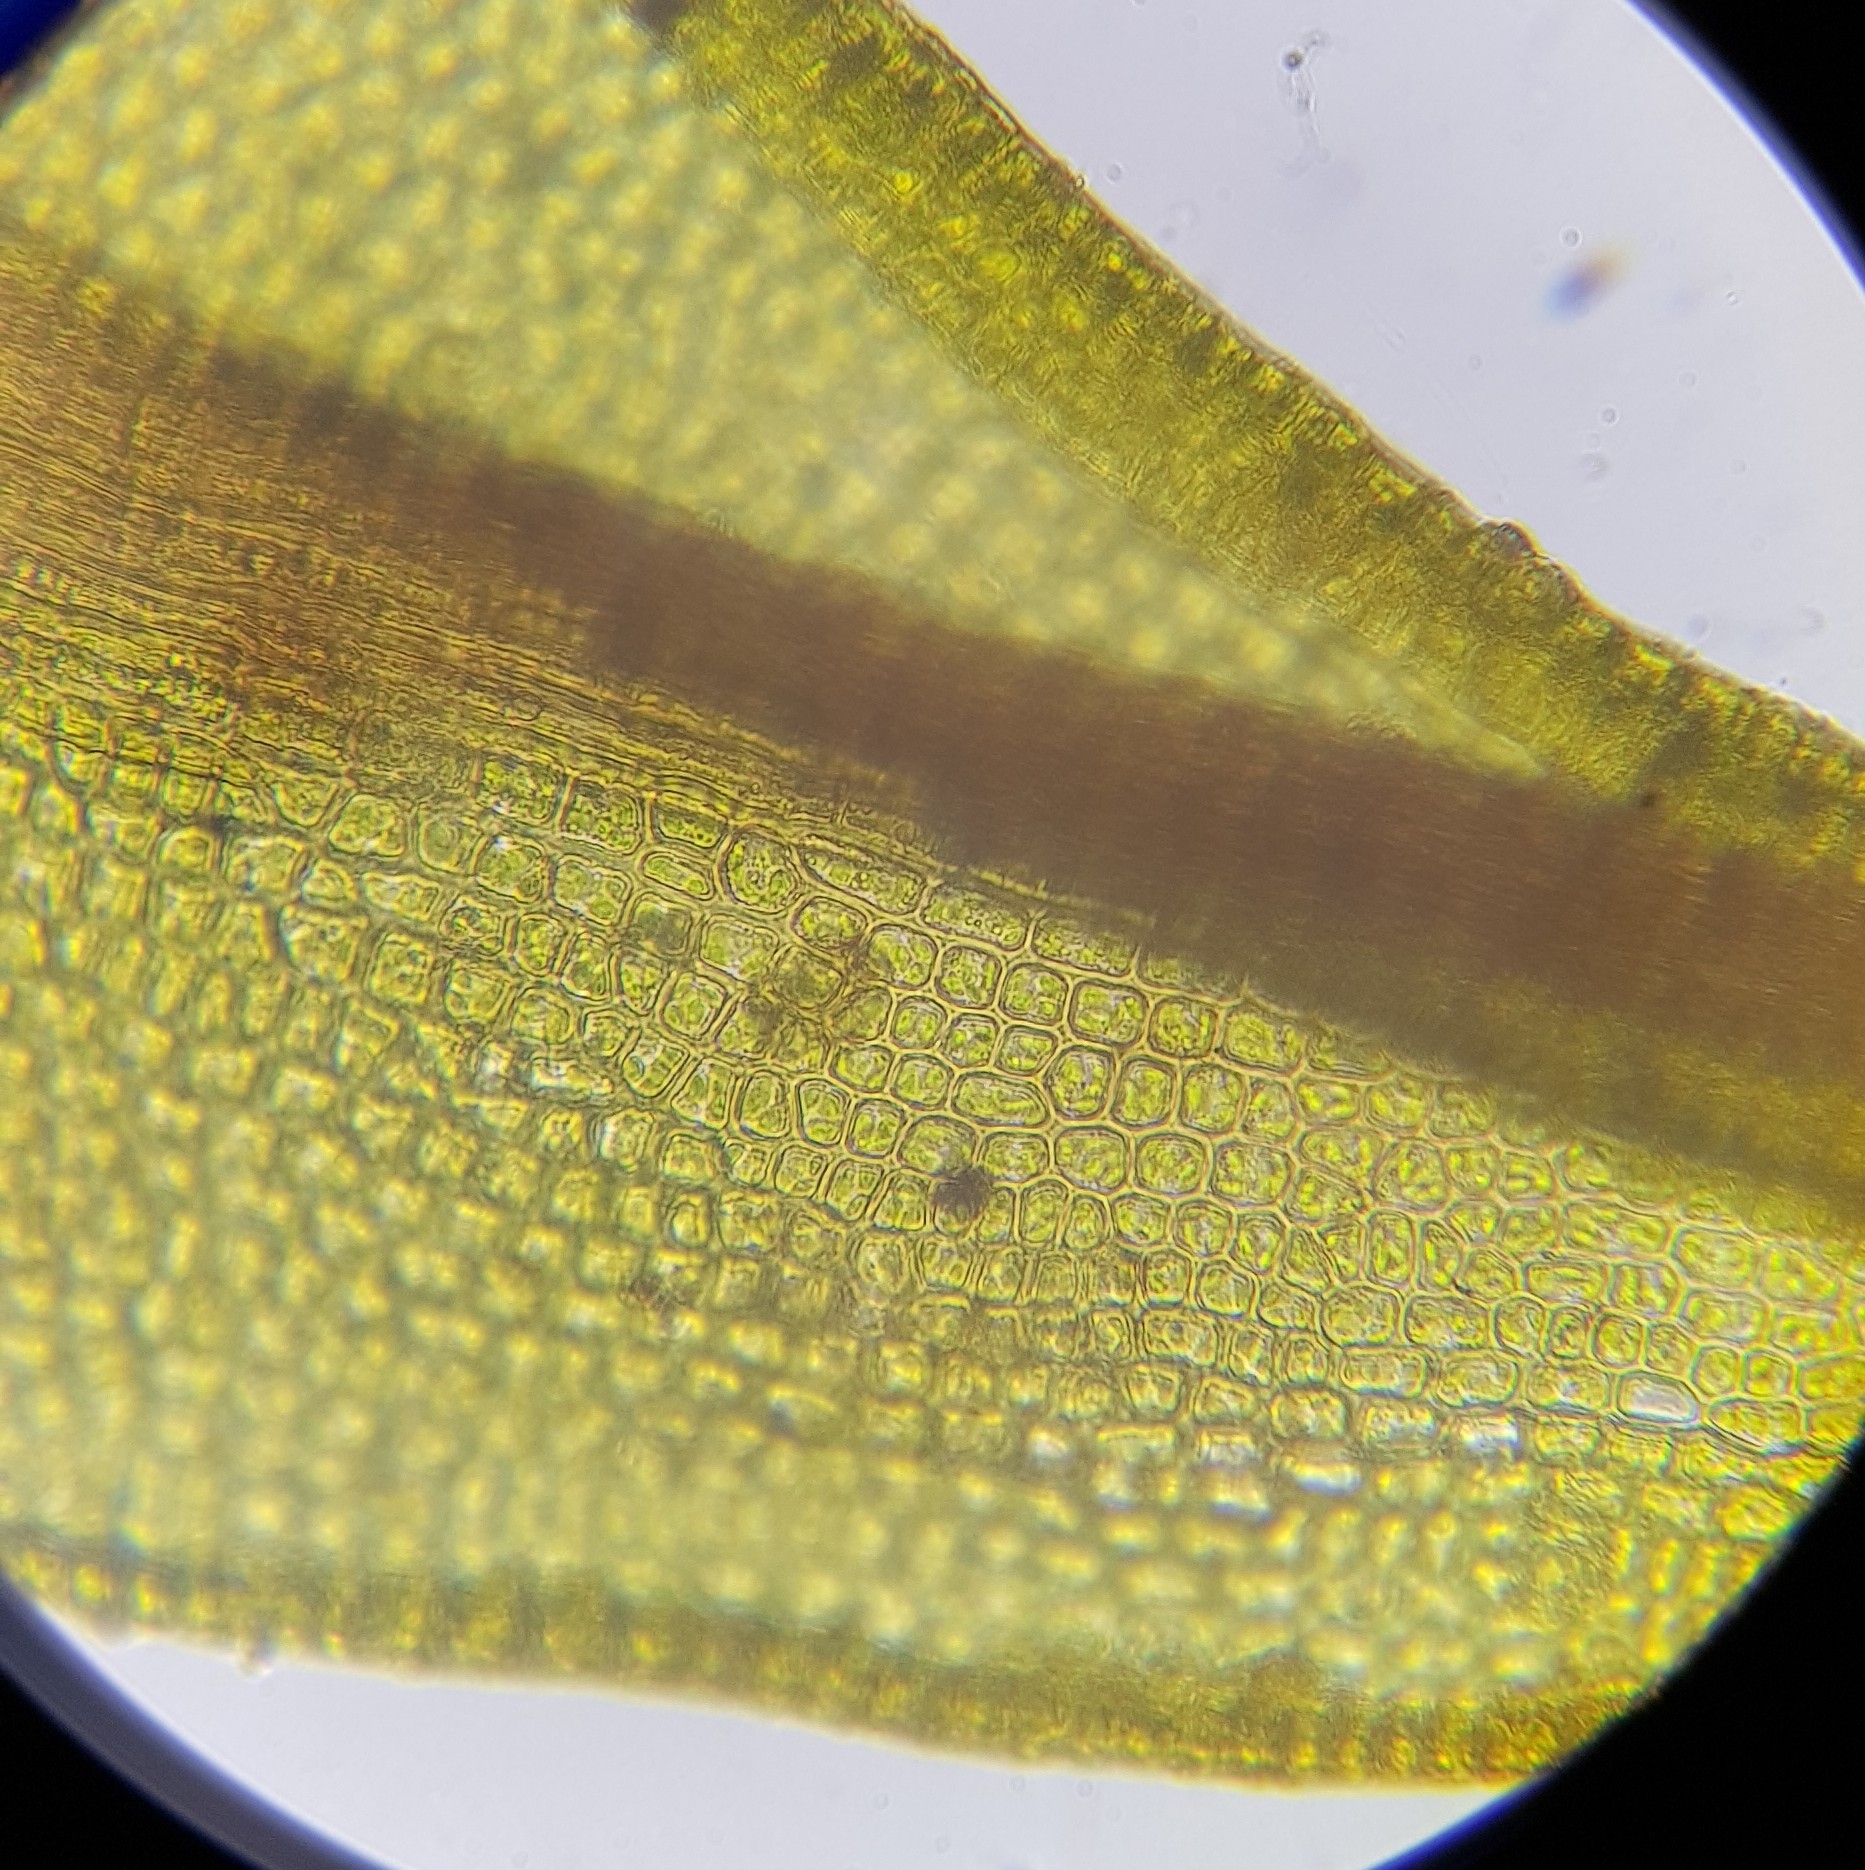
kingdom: Plantae
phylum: Bryophyta
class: Bryopsida
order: Pottiales
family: Pottiaceae
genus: Geheebia
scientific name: Geheebia tophacea
